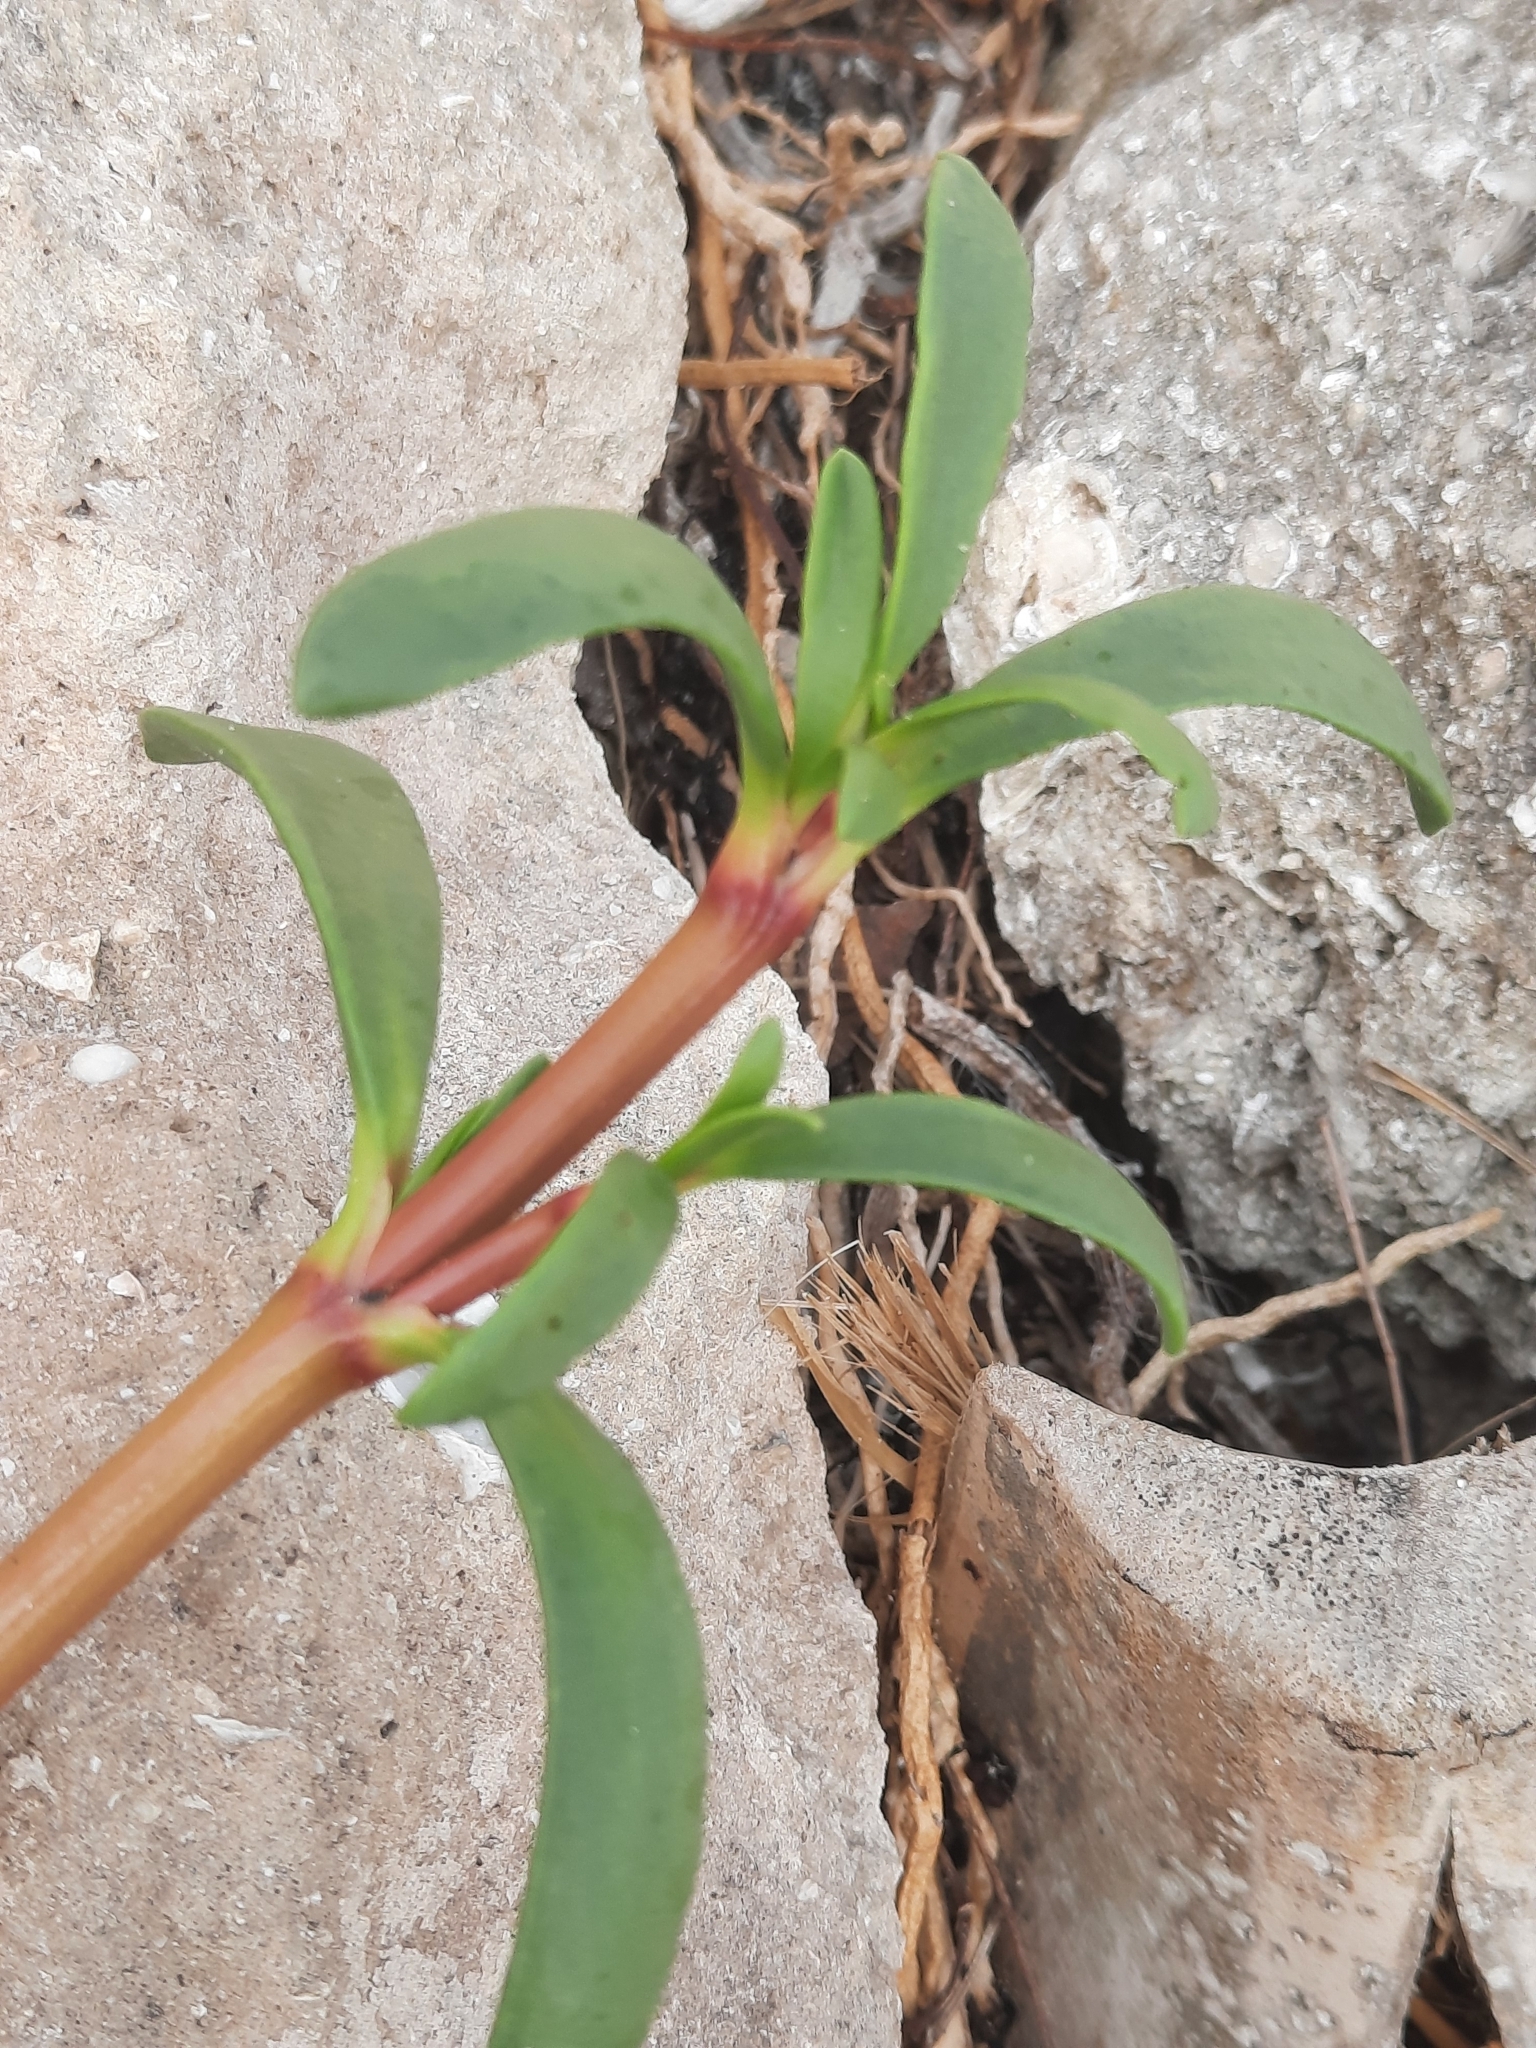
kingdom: Plantae
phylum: Tracheophyta
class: Magnoliopsida
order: Caryophyllales
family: Aizoaceae
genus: Sesuvium
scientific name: Sesuvium portulacastrum
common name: Sea-purslane
